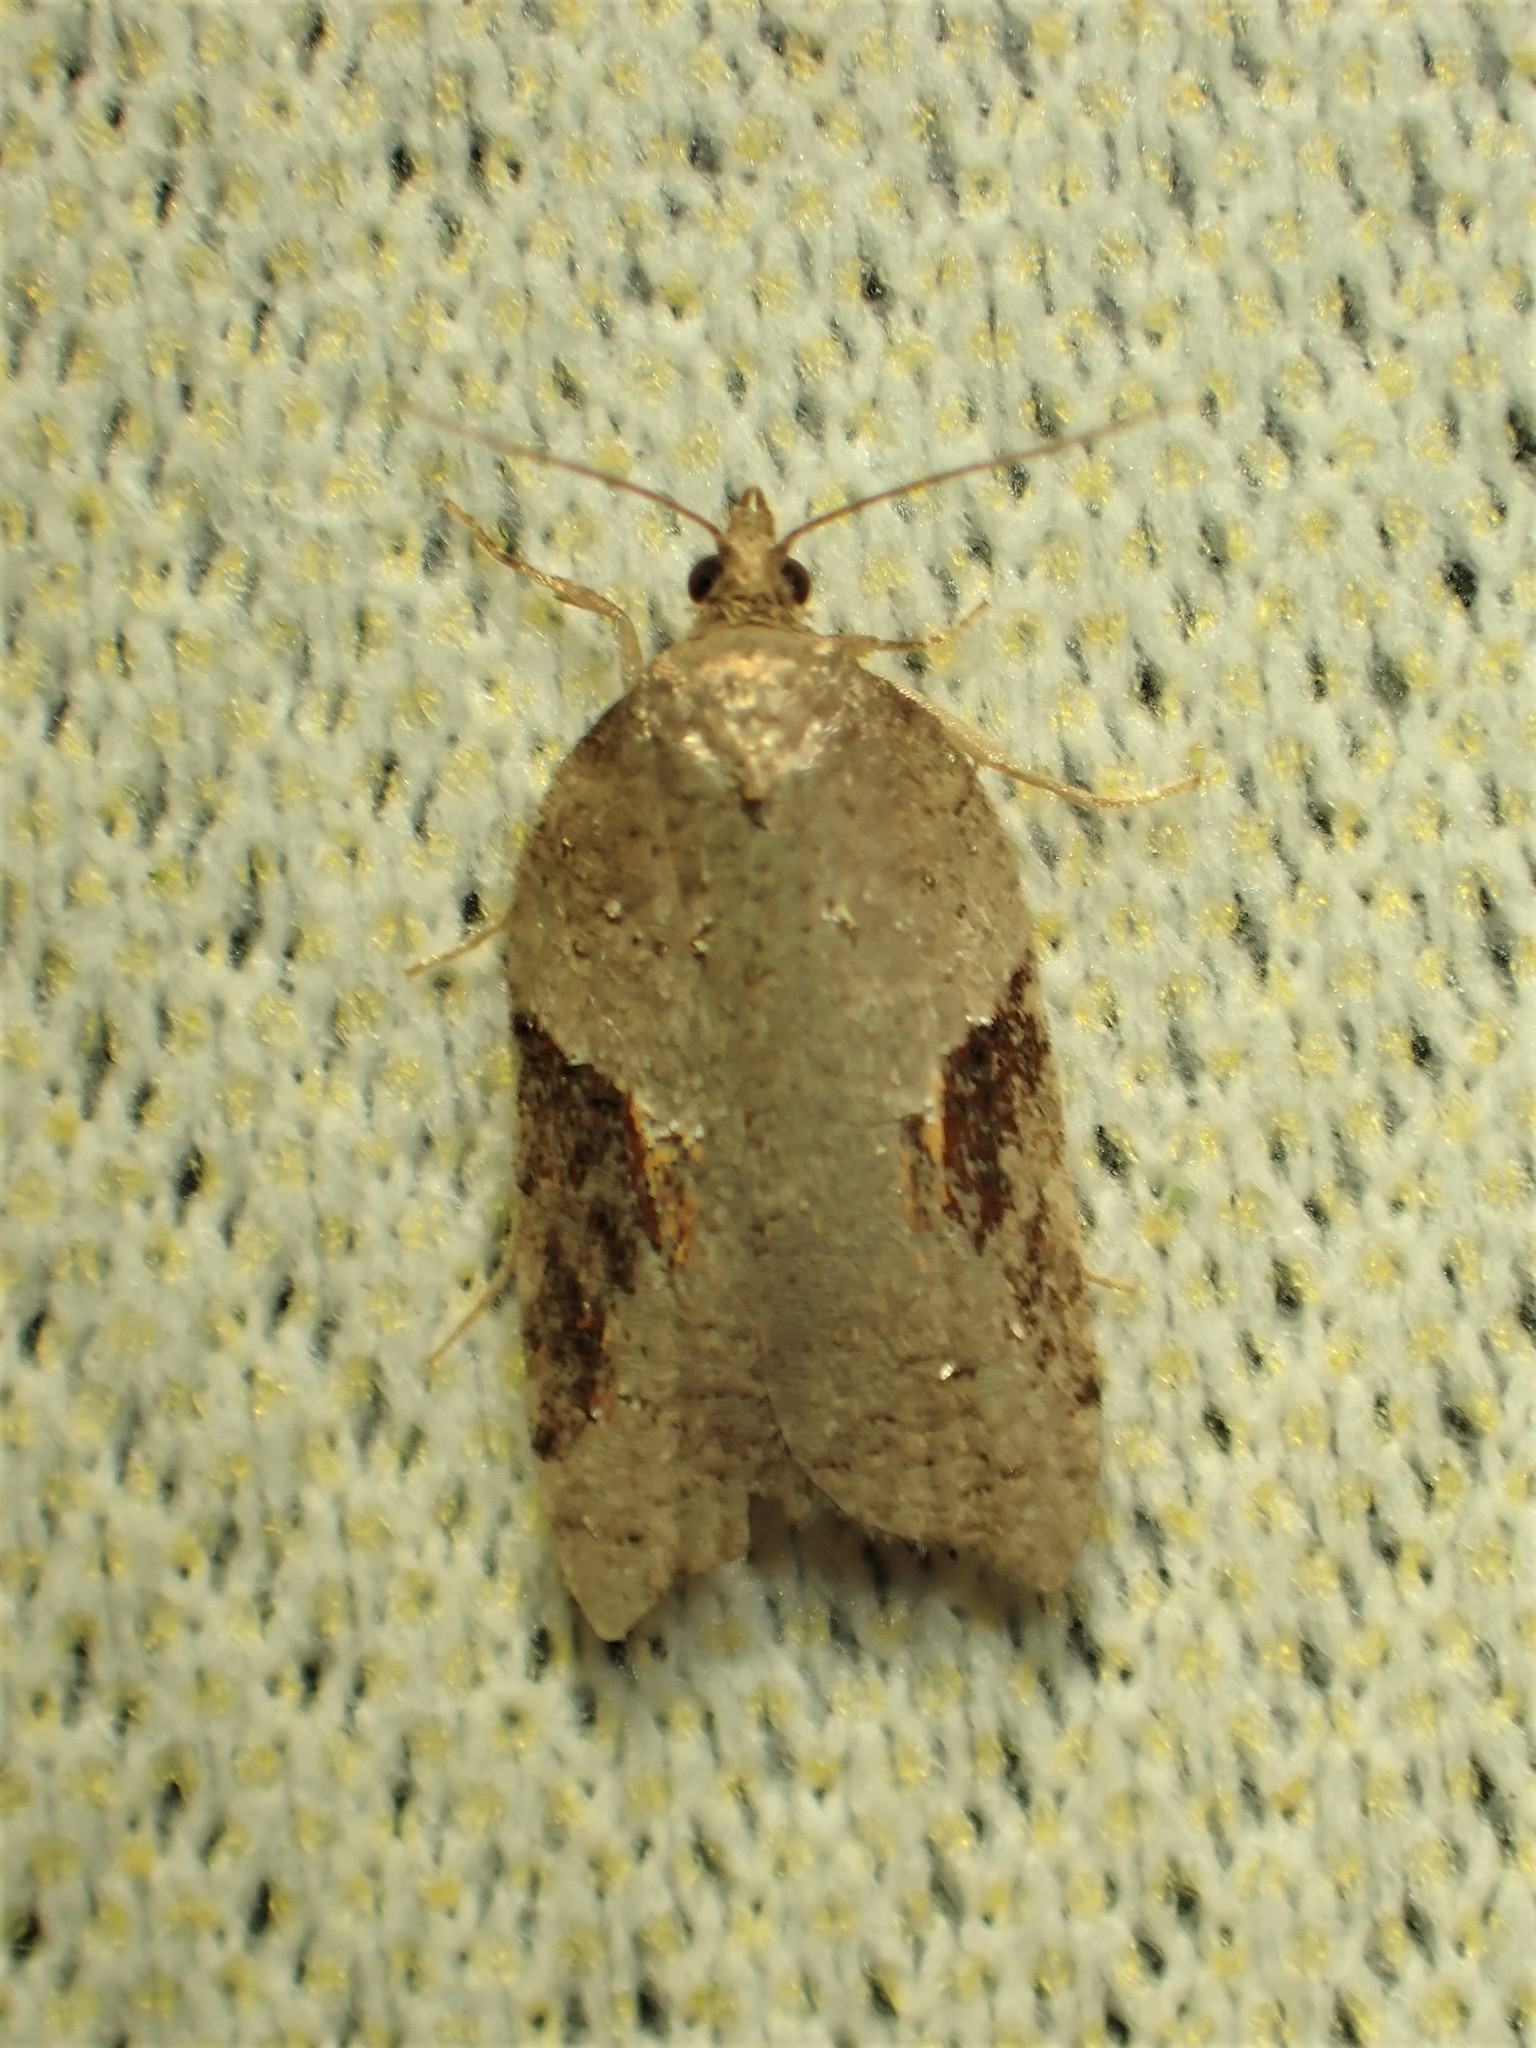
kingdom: Animalia
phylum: Arthropoda
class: Insecta
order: Lepidoptera
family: Tortricidae
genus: Acleris
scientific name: Acleris macdunnoughi
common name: Macdunnough's acleris
